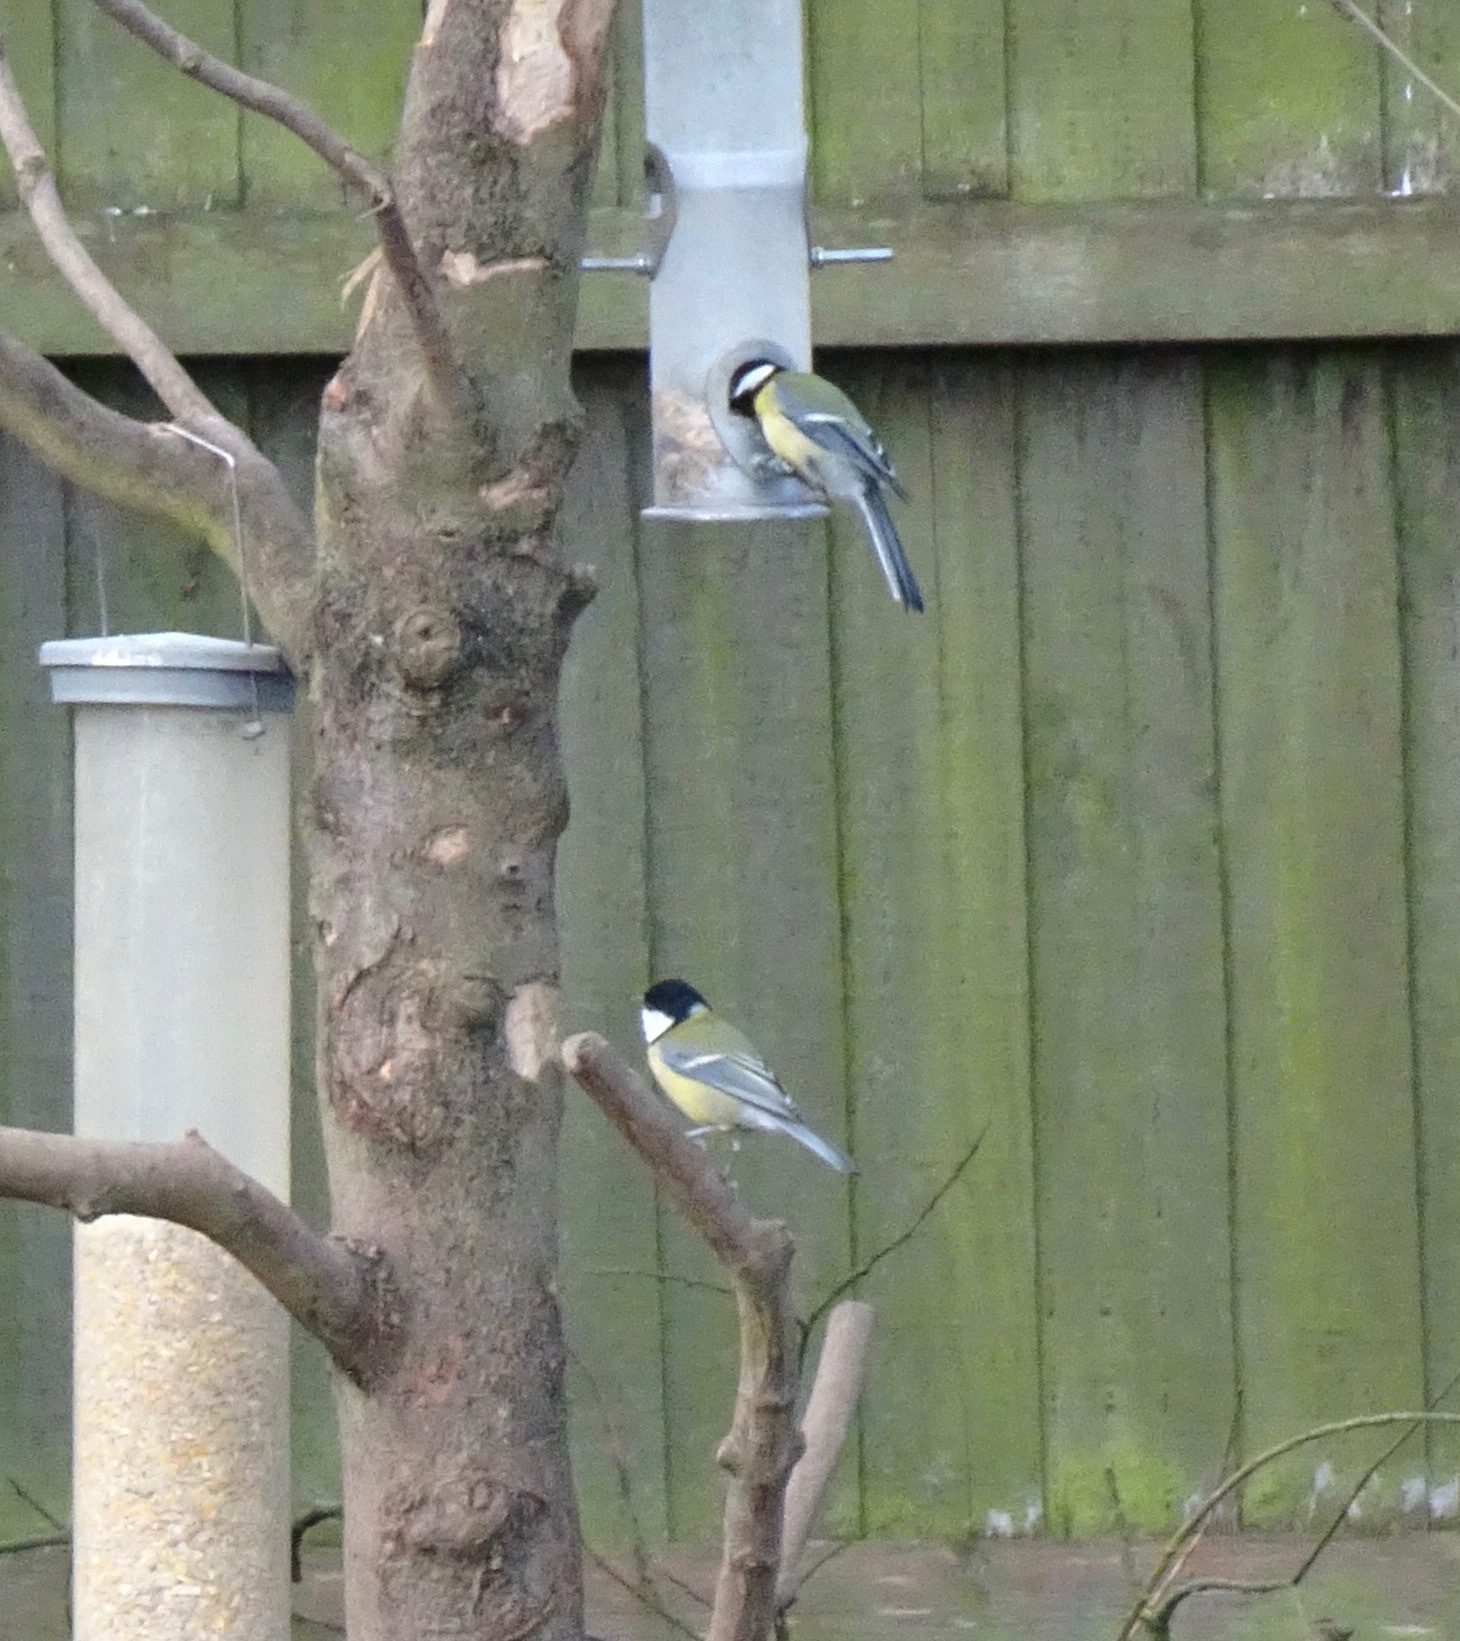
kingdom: Animalia
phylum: Chordata
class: Aves
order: Passeriformes
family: Paridae
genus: Parus
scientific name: Parus major
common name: Great tit
